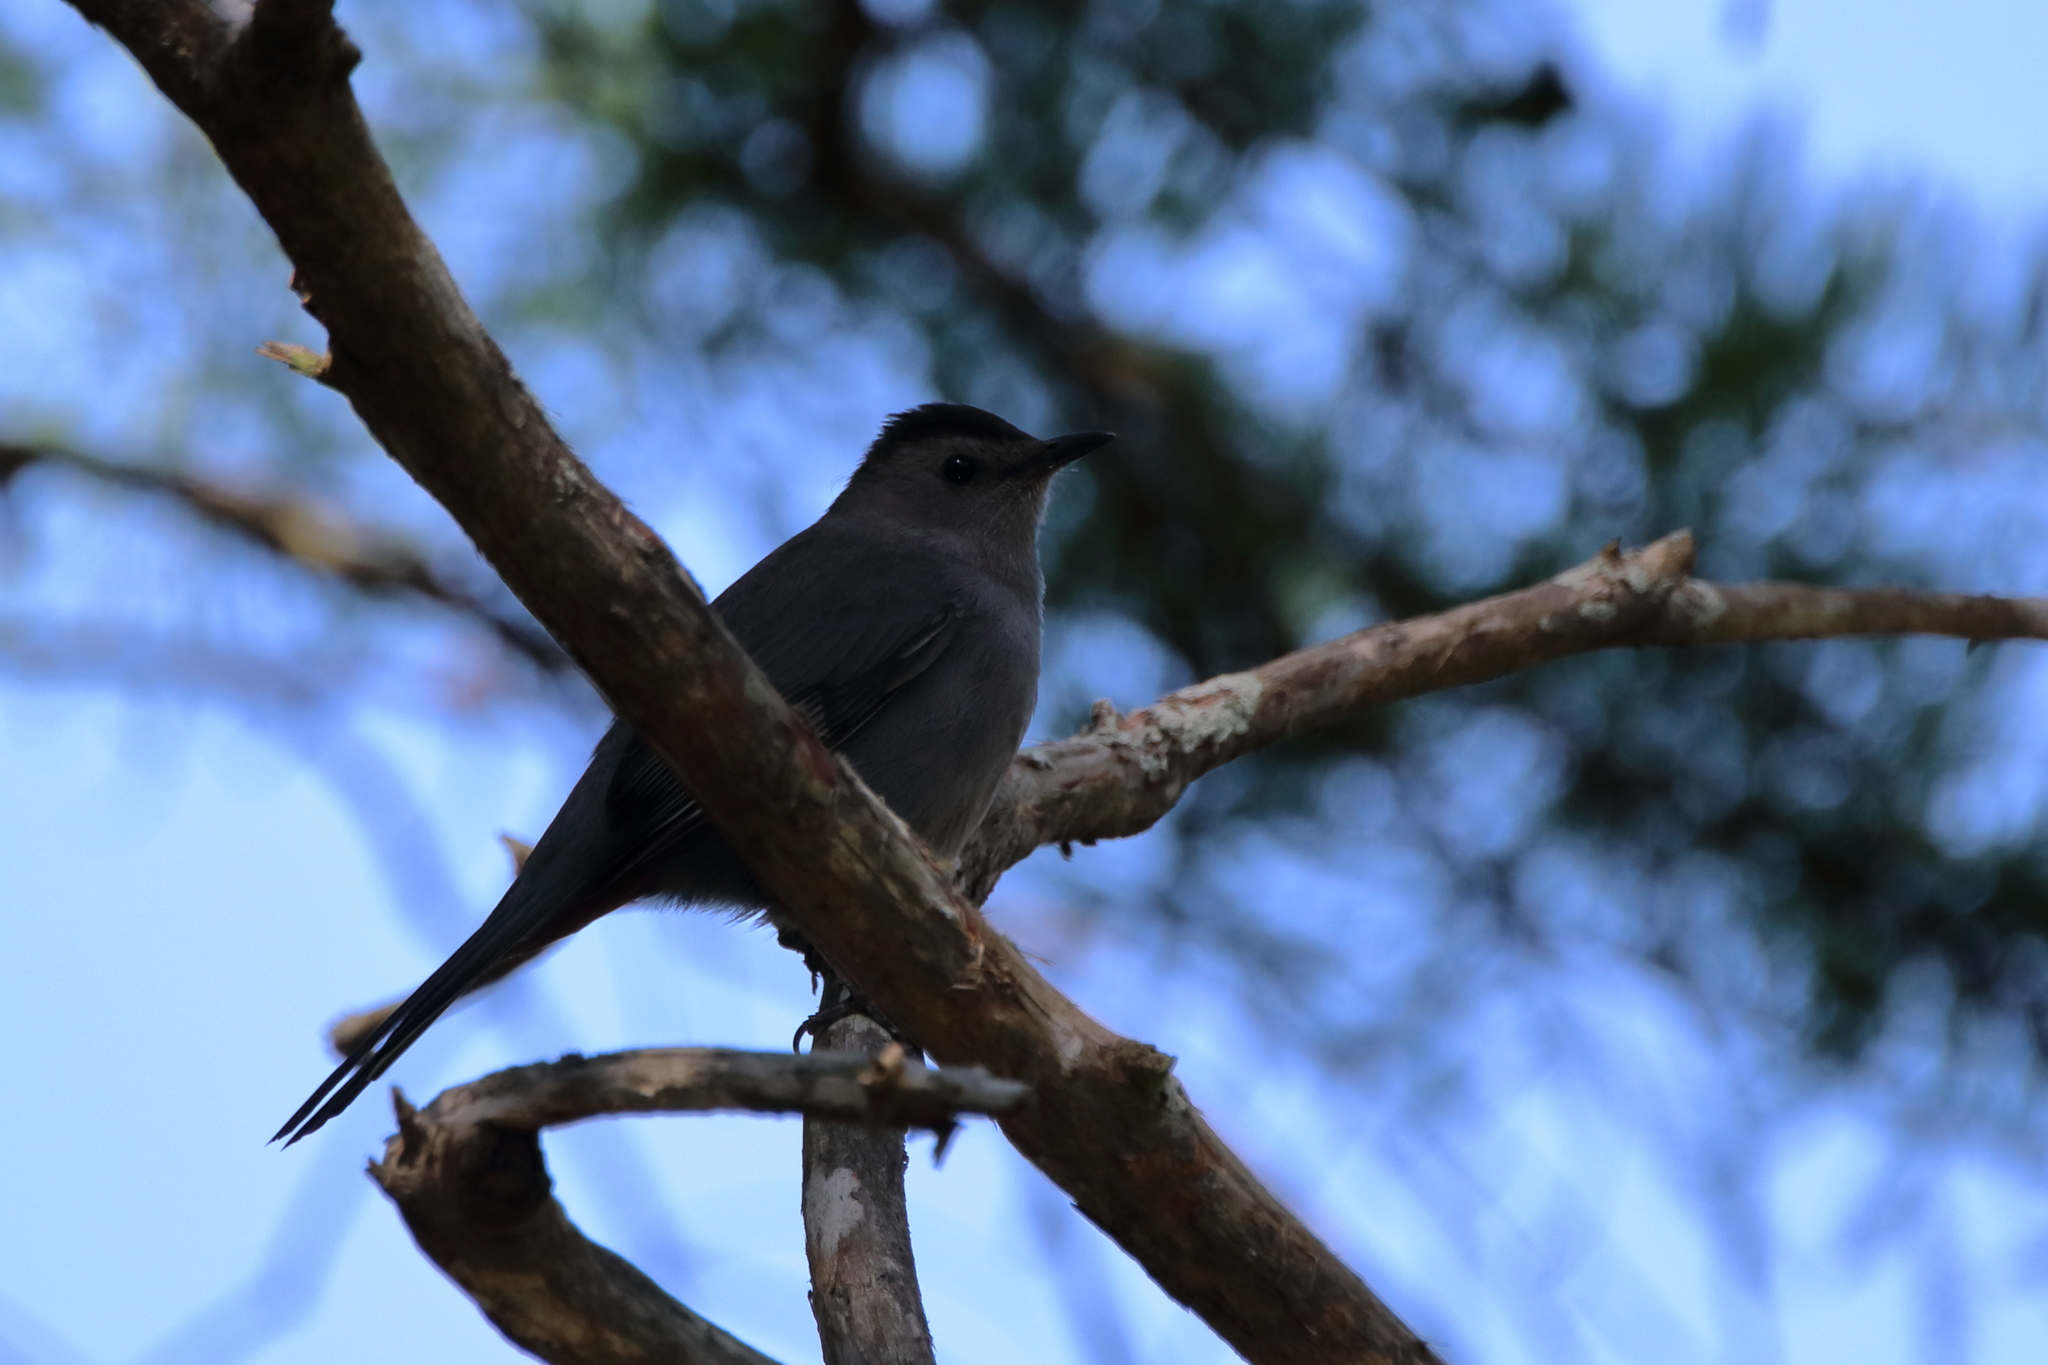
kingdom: Animalia
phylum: Chordata
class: Aves
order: Passeriformes
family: Mimidae
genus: Dumetella
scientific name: Dumetella carolinensis
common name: Gray catbird
